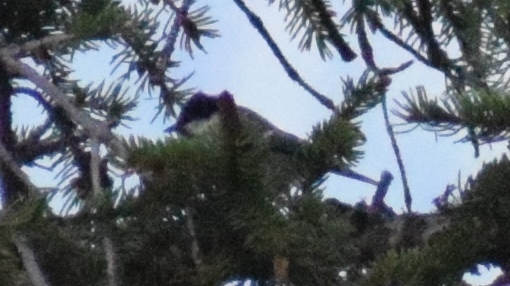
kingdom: Animalia
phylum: Chordata
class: Aves
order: Passeriformes
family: Paridae
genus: Periparus
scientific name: Periparus ater
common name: Coal tit
